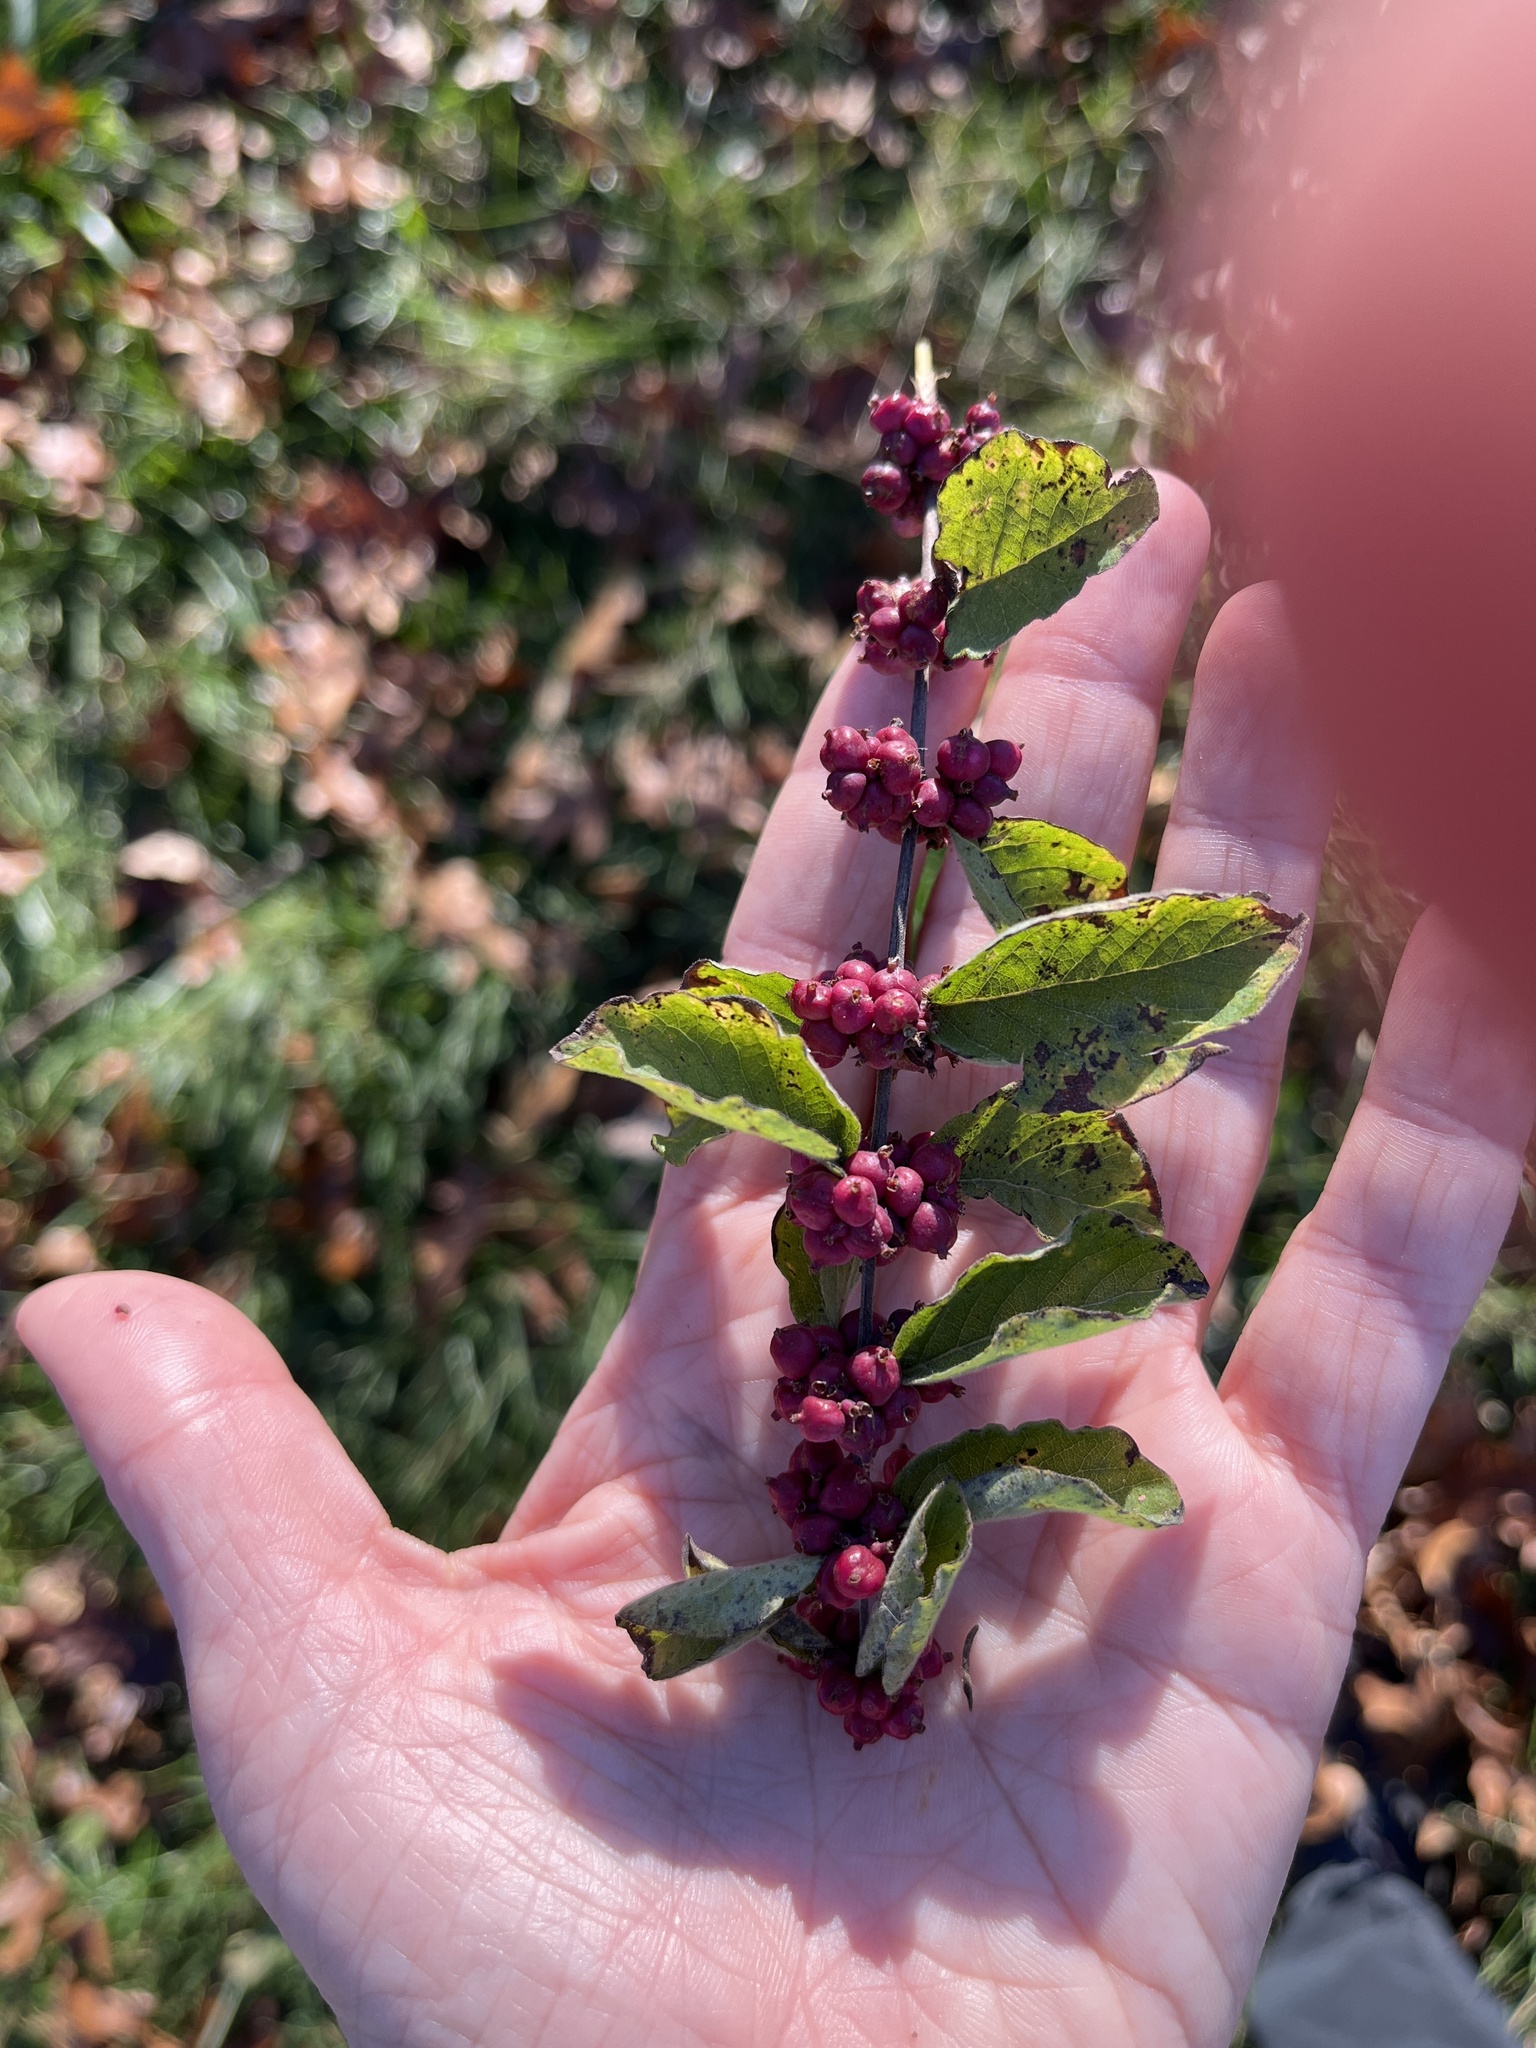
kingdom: Plantae
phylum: Tracheophyta
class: Magnoliopsida
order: Dipsacales
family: Caprifoliaceae
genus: Symphoricarpos
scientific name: Symphoricarpos orbiculatus
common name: Coralberry
